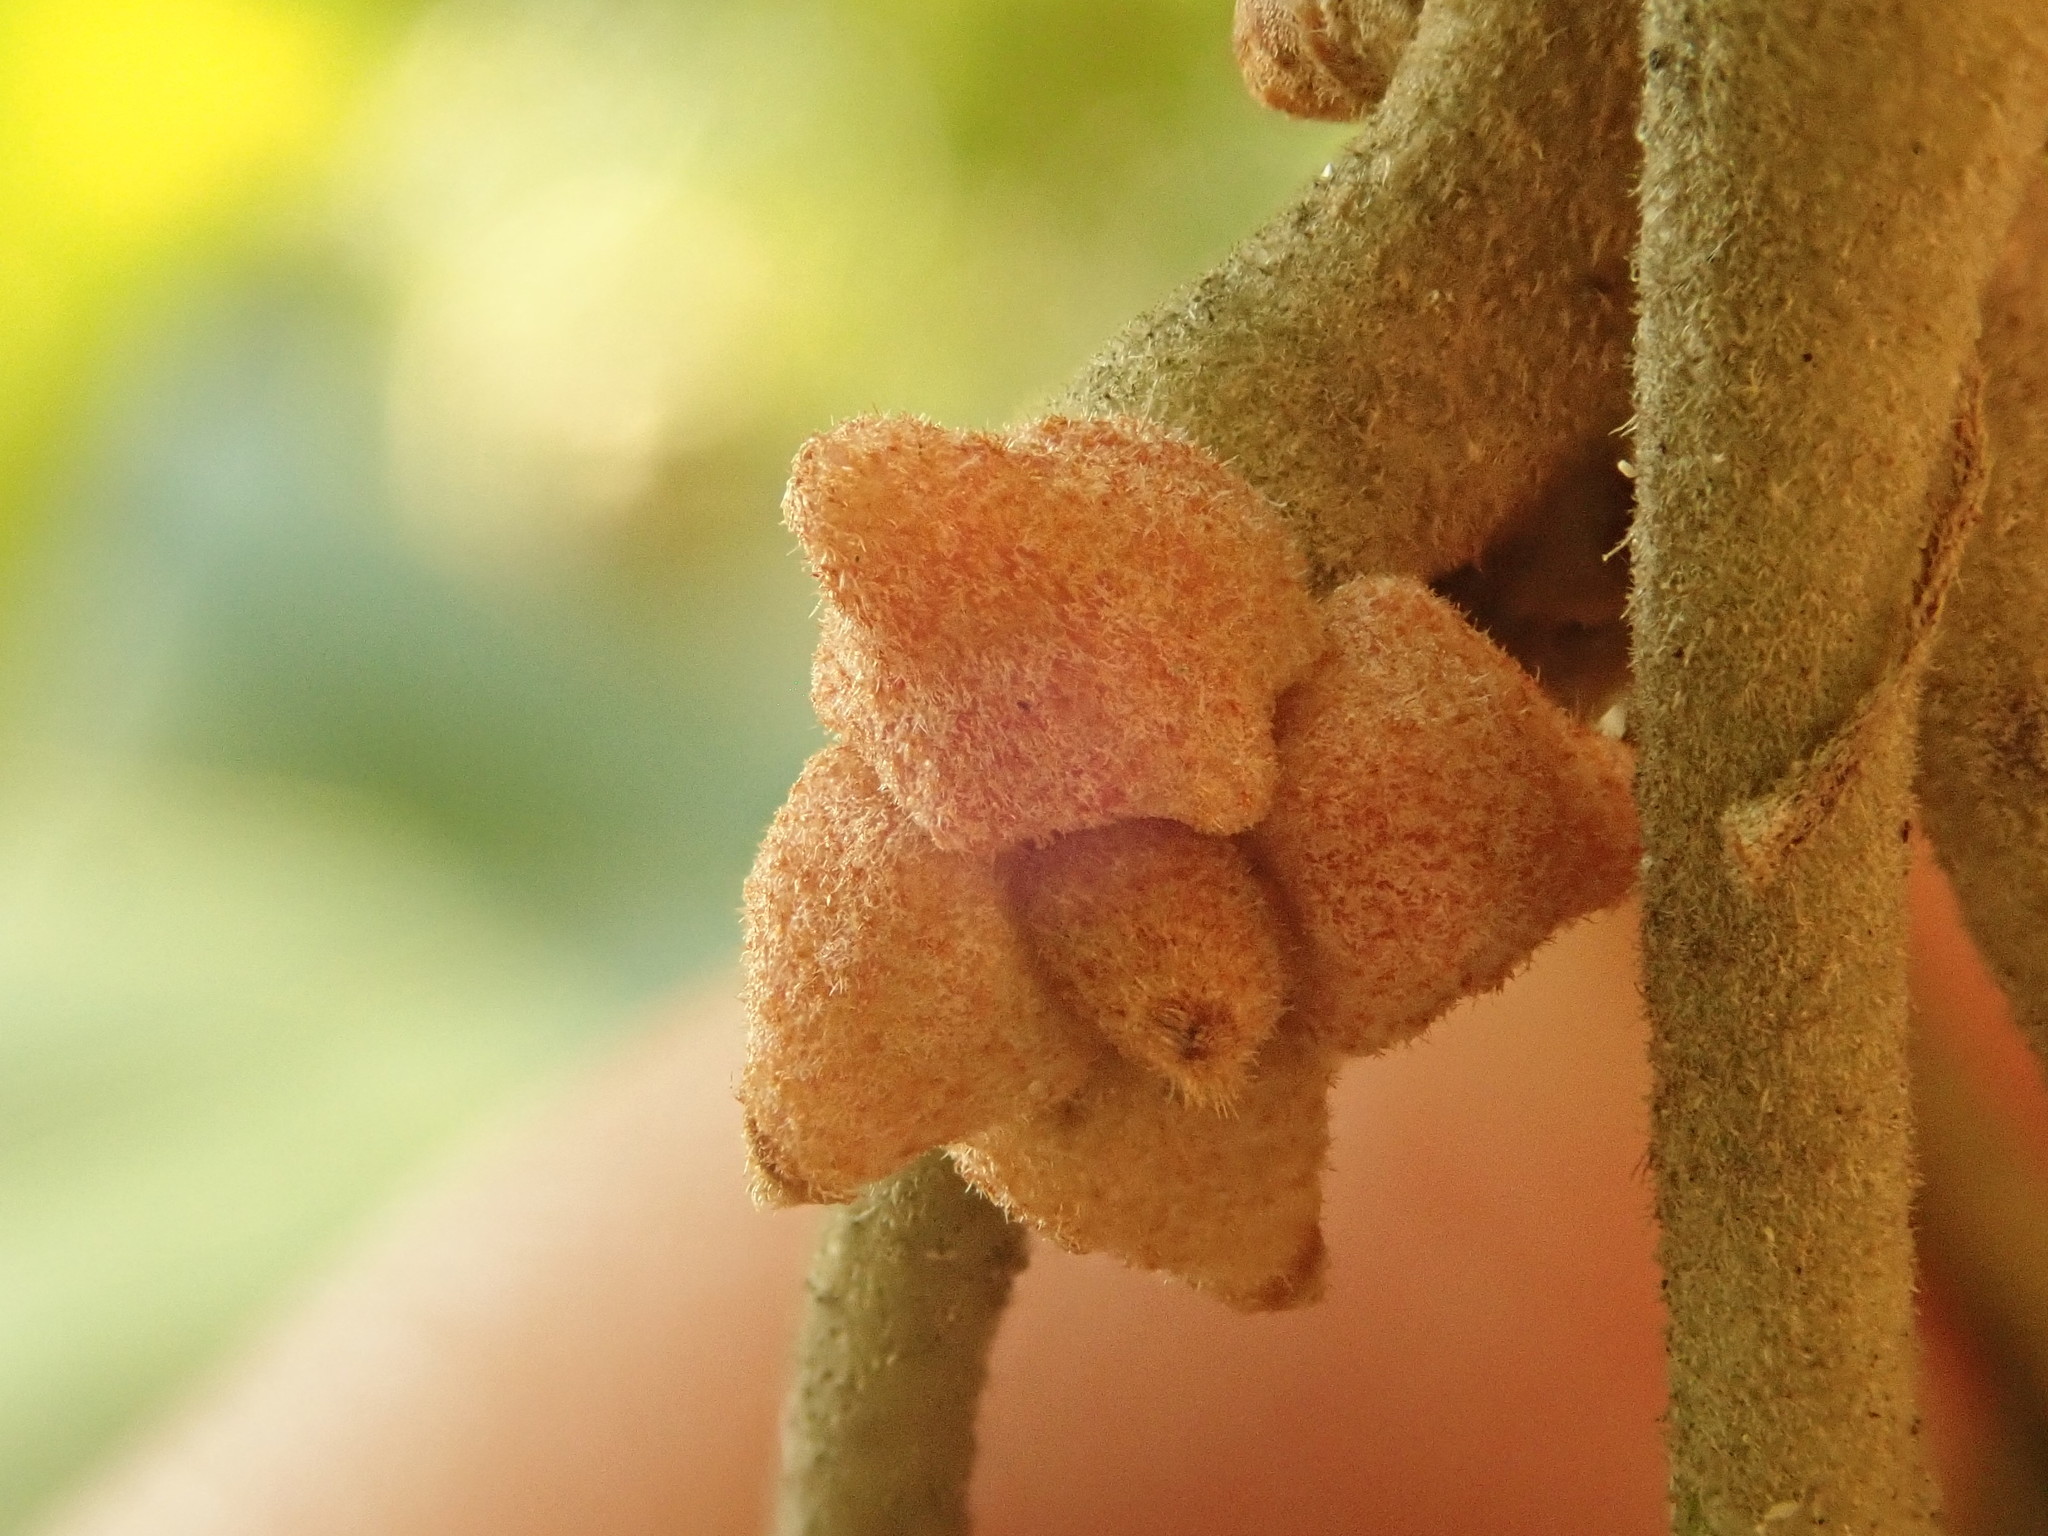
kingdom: Animalia
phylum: Arthropoda
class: Insecta
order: Hymenoptera
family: Cynipidae
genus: Andricus
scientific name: Andricus
